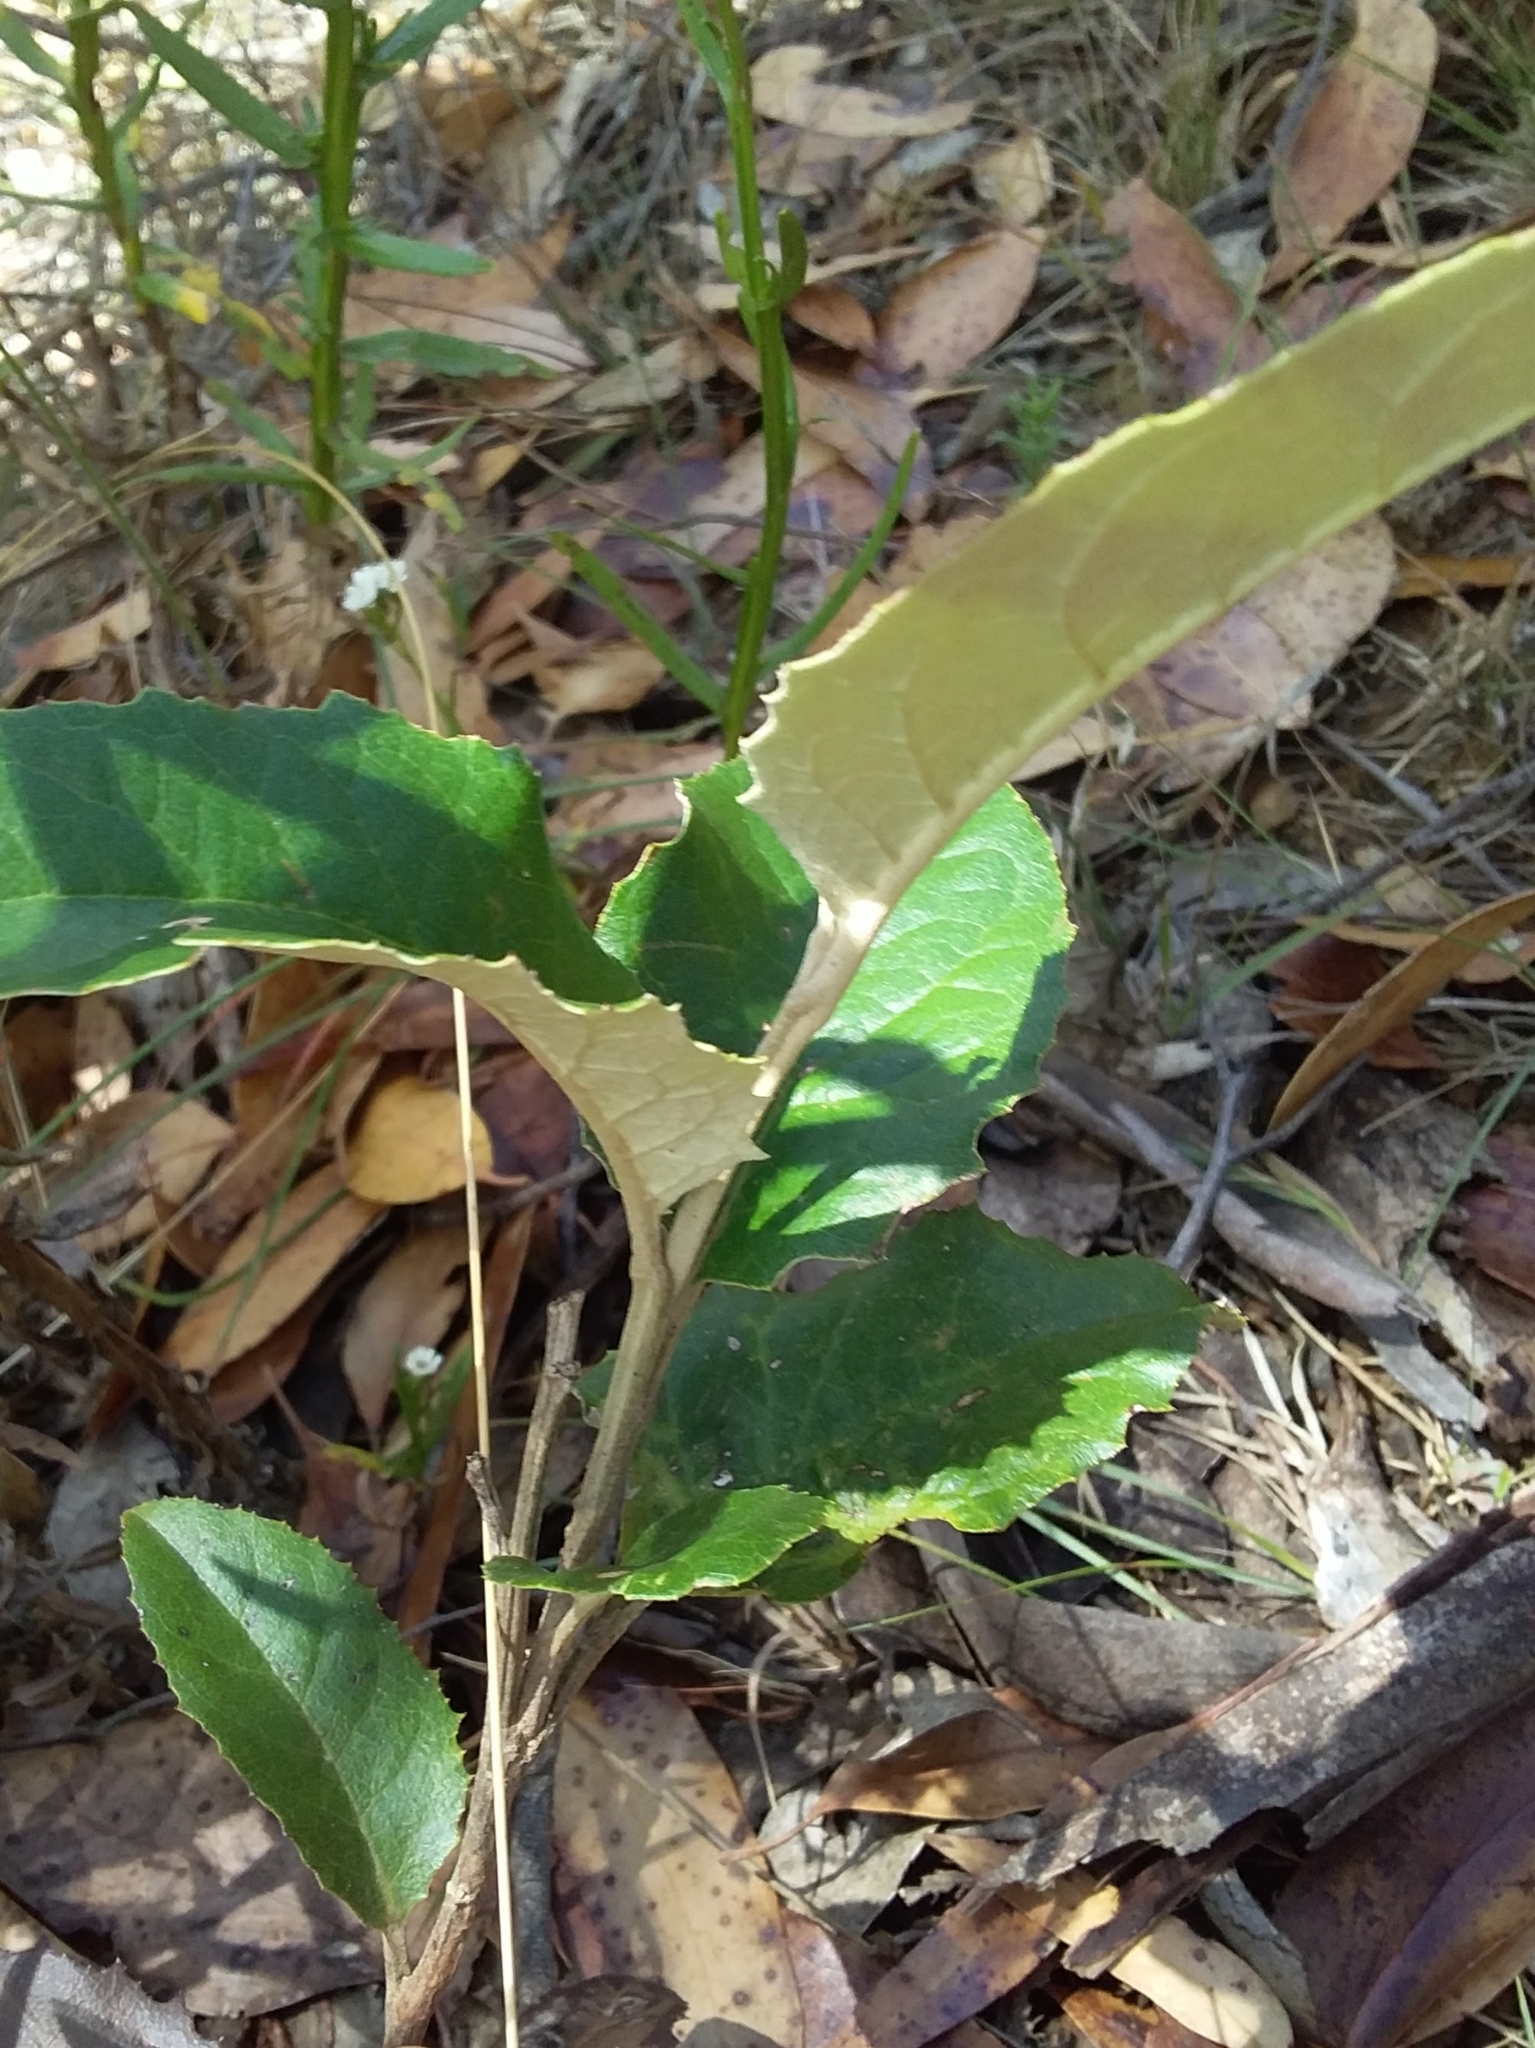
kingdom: Plantae
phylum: Tracheophyta
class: Magnoliopsida
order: Asterales
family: Asteraceae
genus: Olearia
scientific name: Olearia grandiflora
